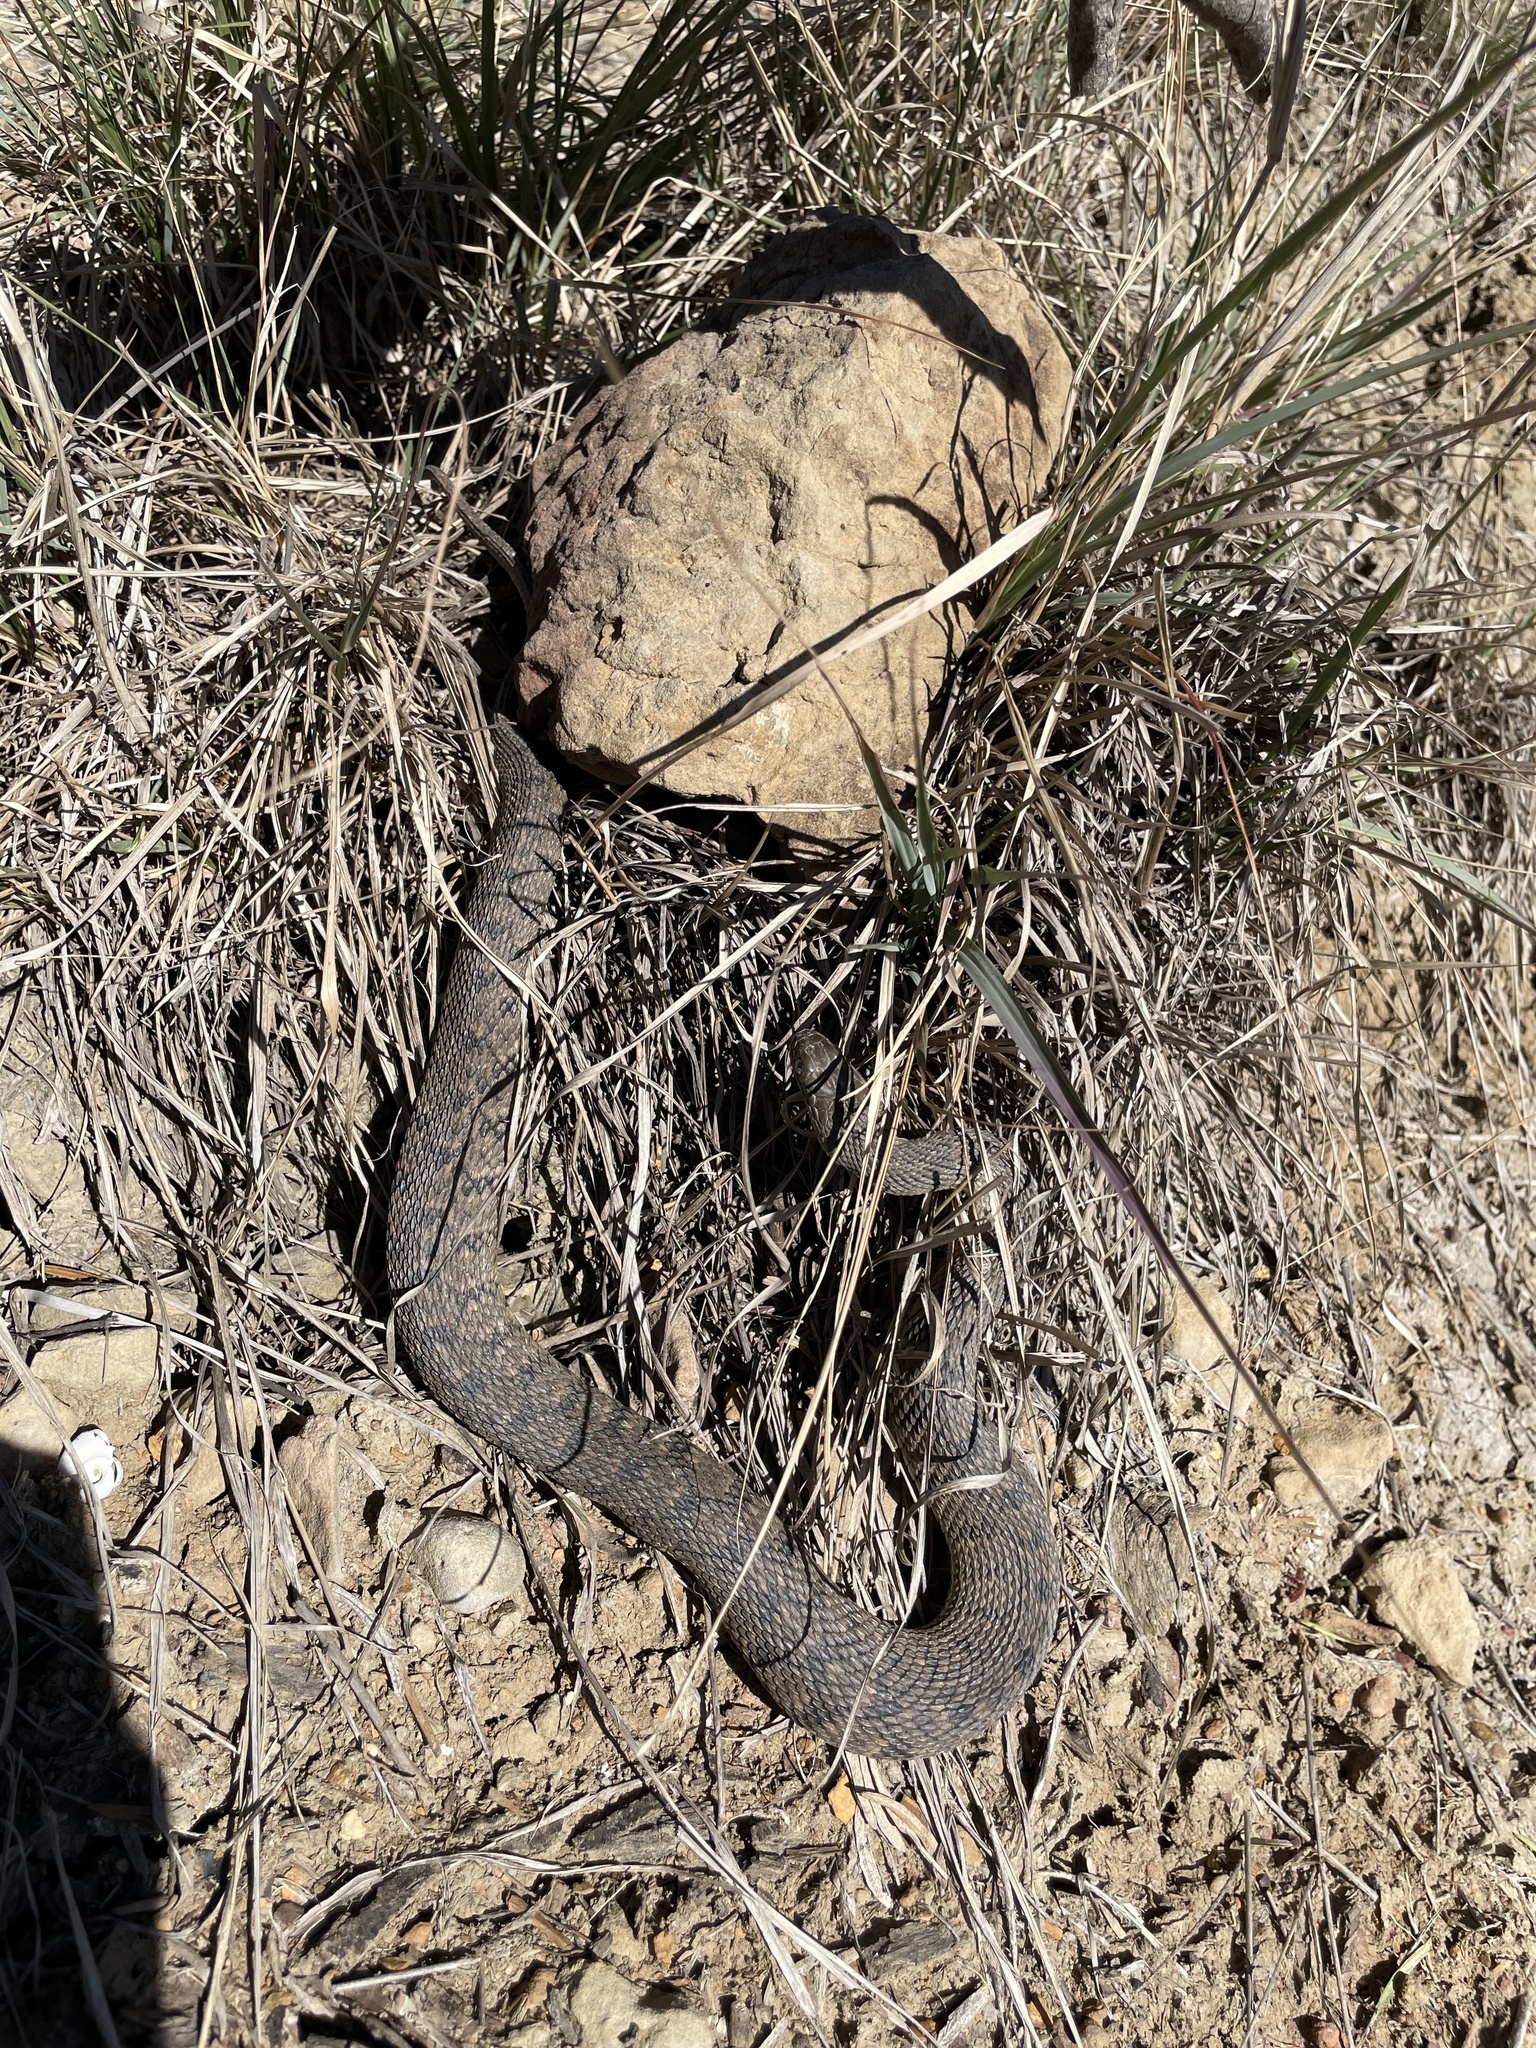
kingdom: Animalia
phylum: Chordata
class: Squamata
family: Colubridae
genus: Nerodia
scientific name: Nerodia rhombifer
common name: Diamondback water snake
